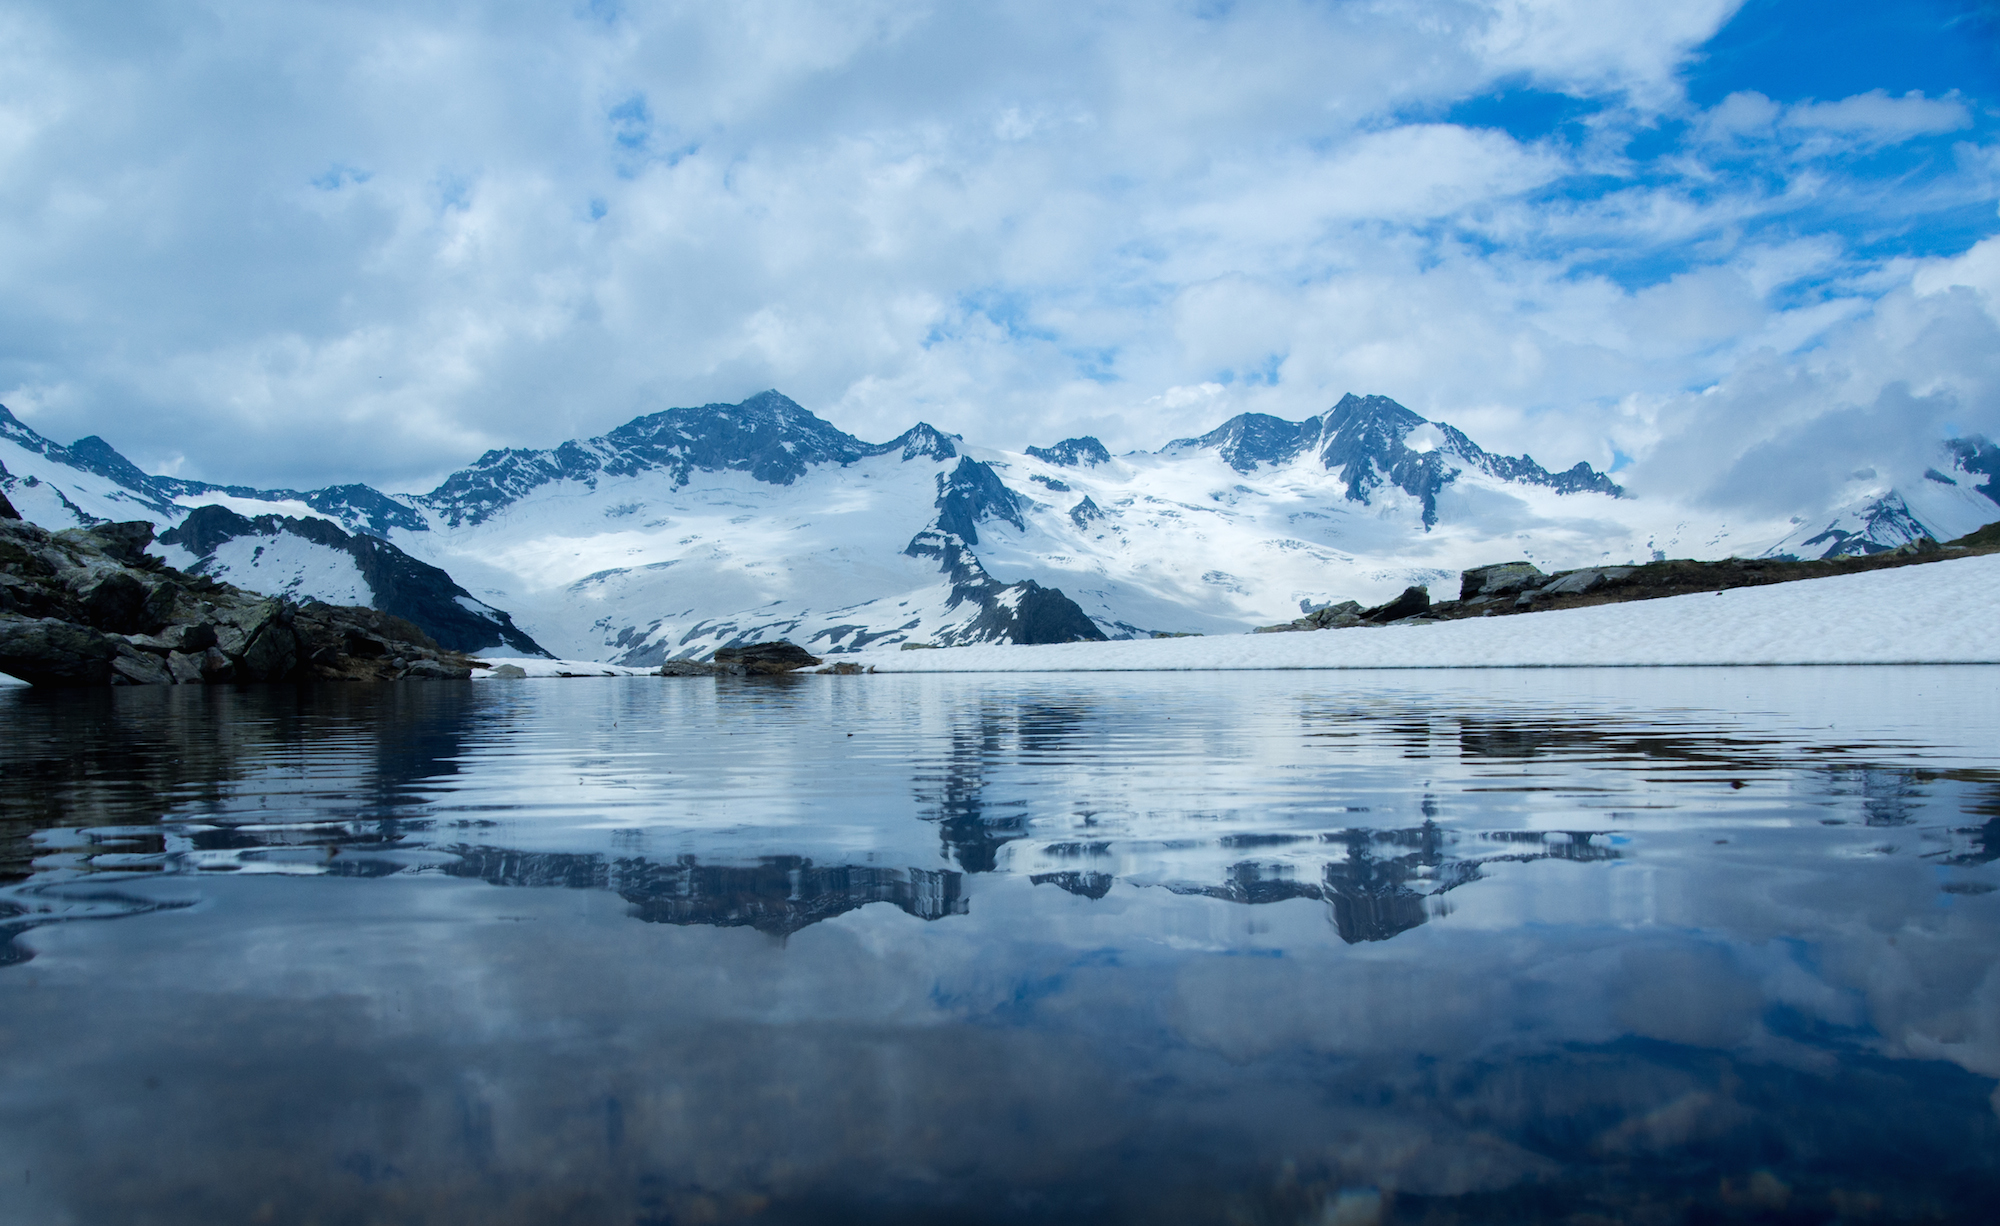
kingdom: Animalia
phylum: Chordata
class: Amphibia
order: Anura
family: Ranidae
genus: Rana
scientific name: Rana temporaria
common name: Common frog
